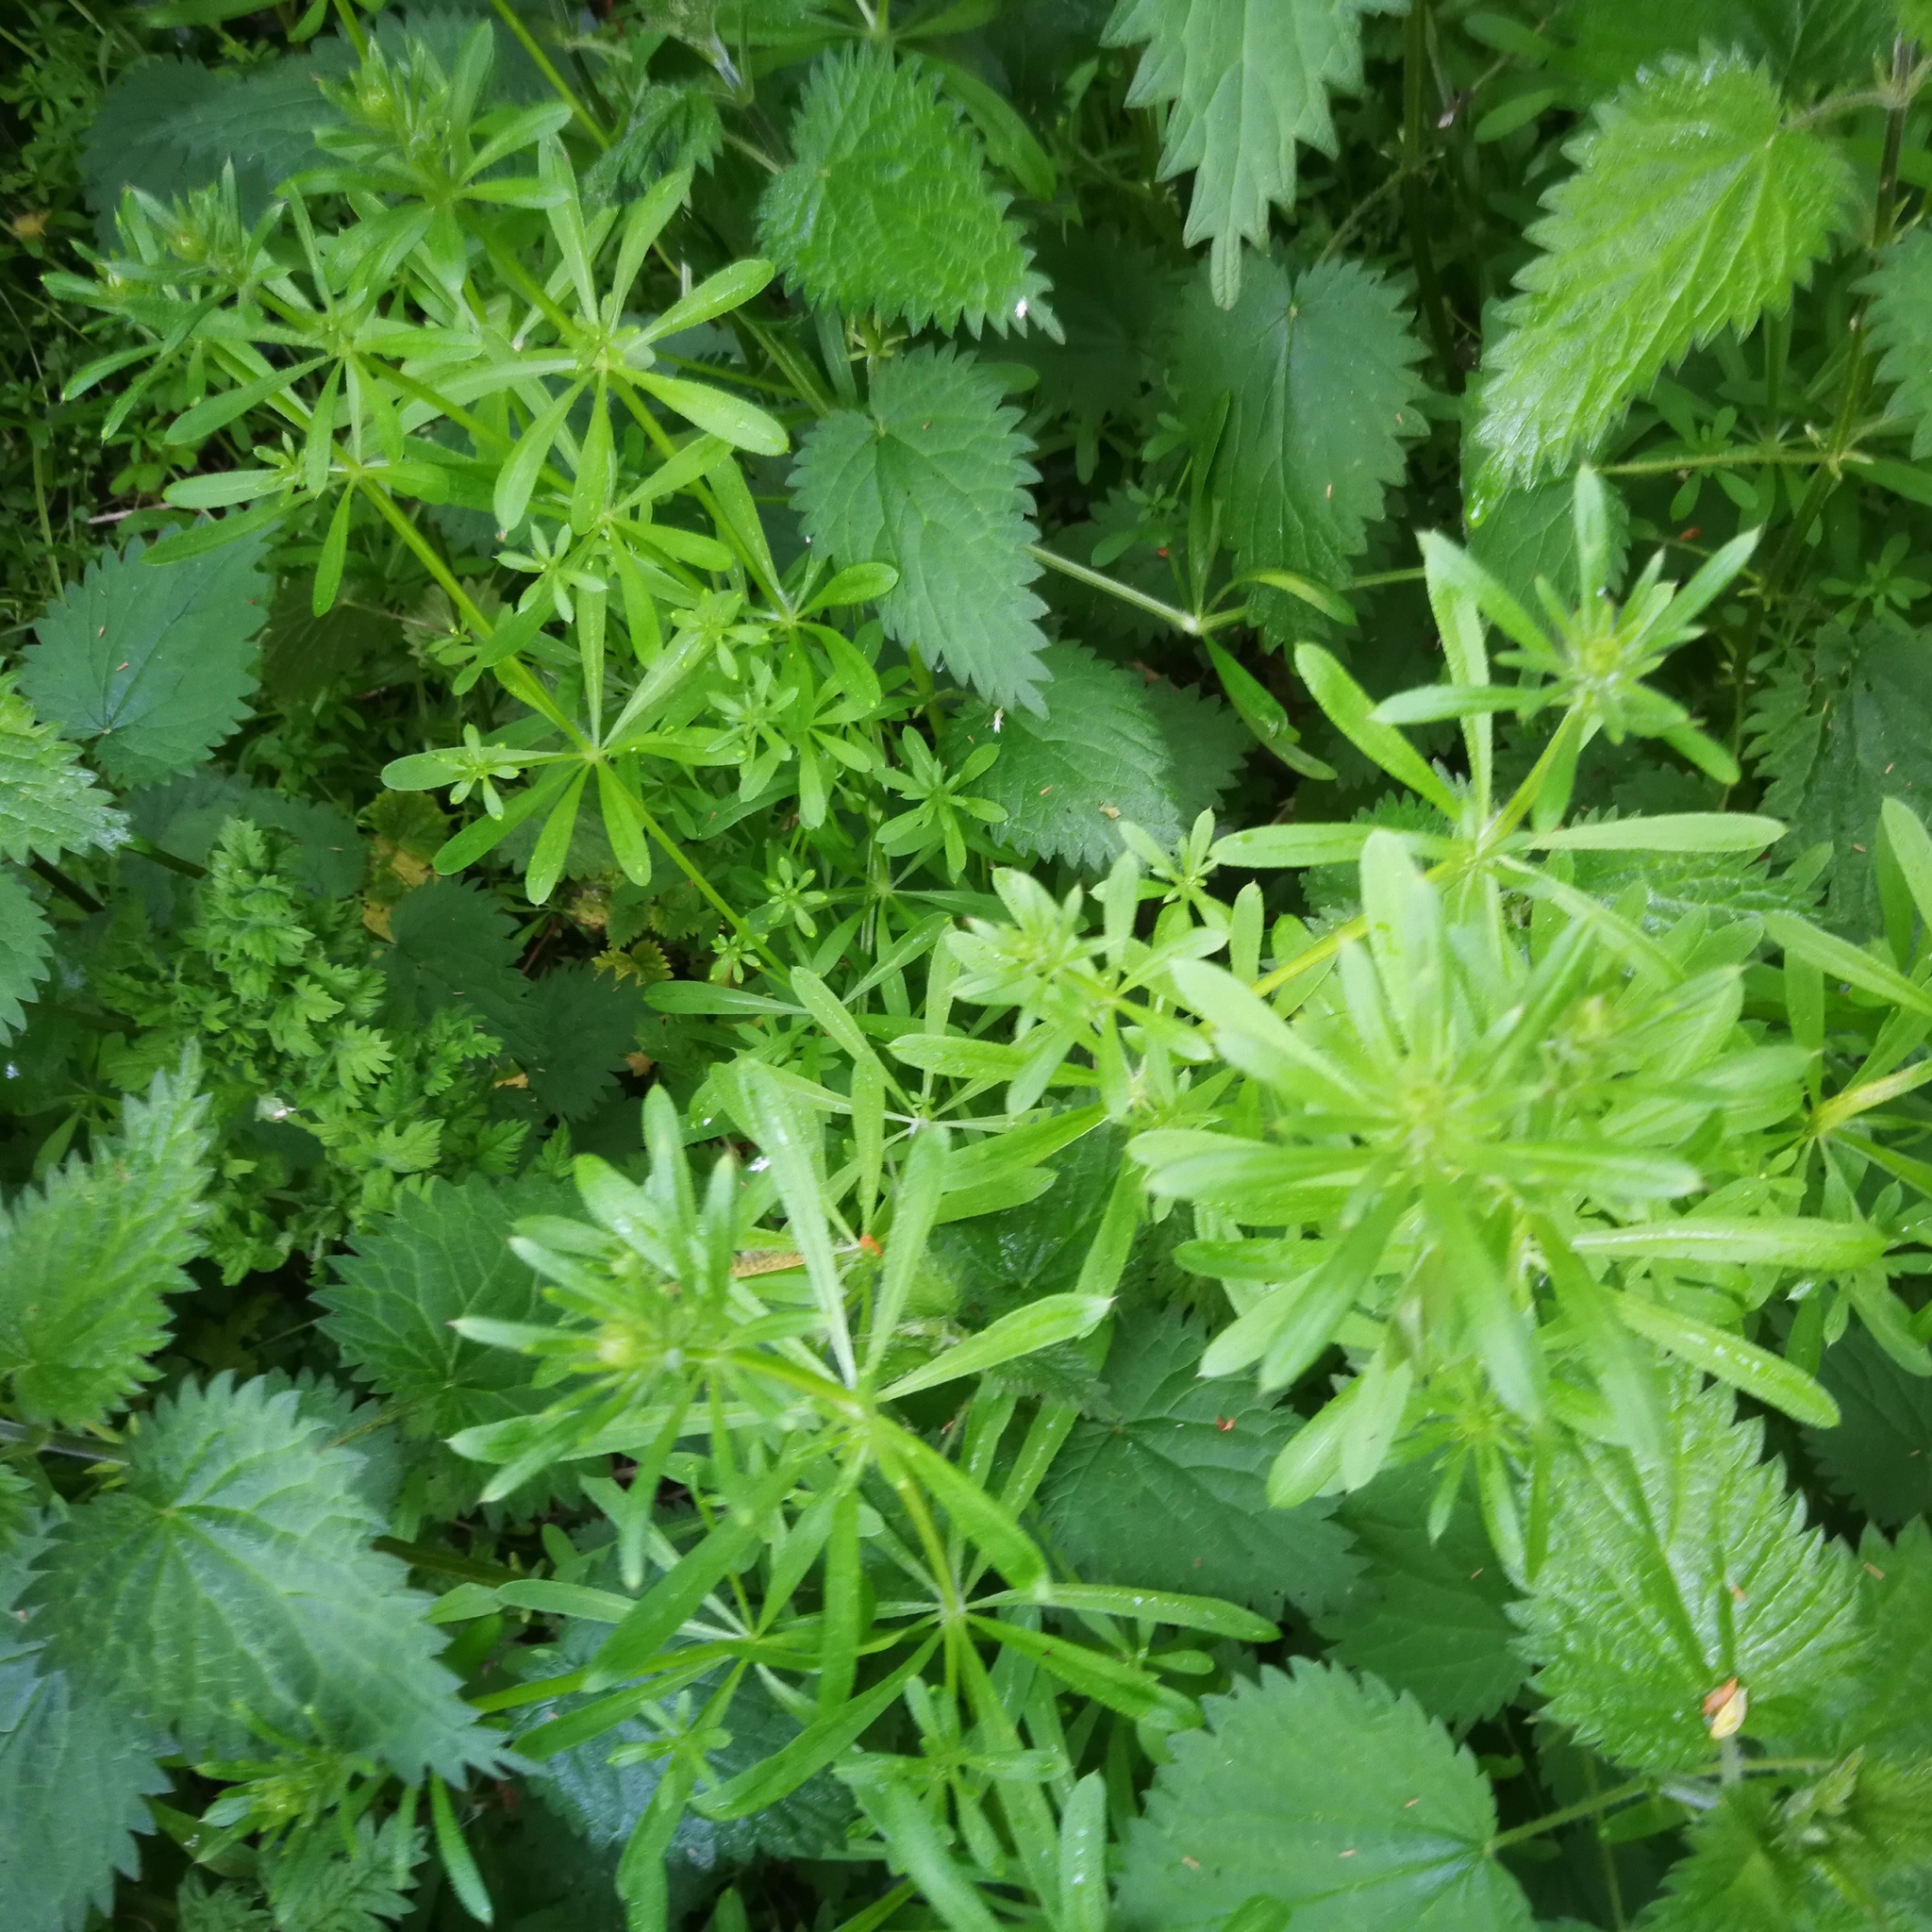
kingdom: Plantae
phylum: Tracheophyta
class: Magnoliopsida
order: Gentianales
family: Rubiaceae
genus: Galium
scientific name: Galium aparine
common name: Cleavers
